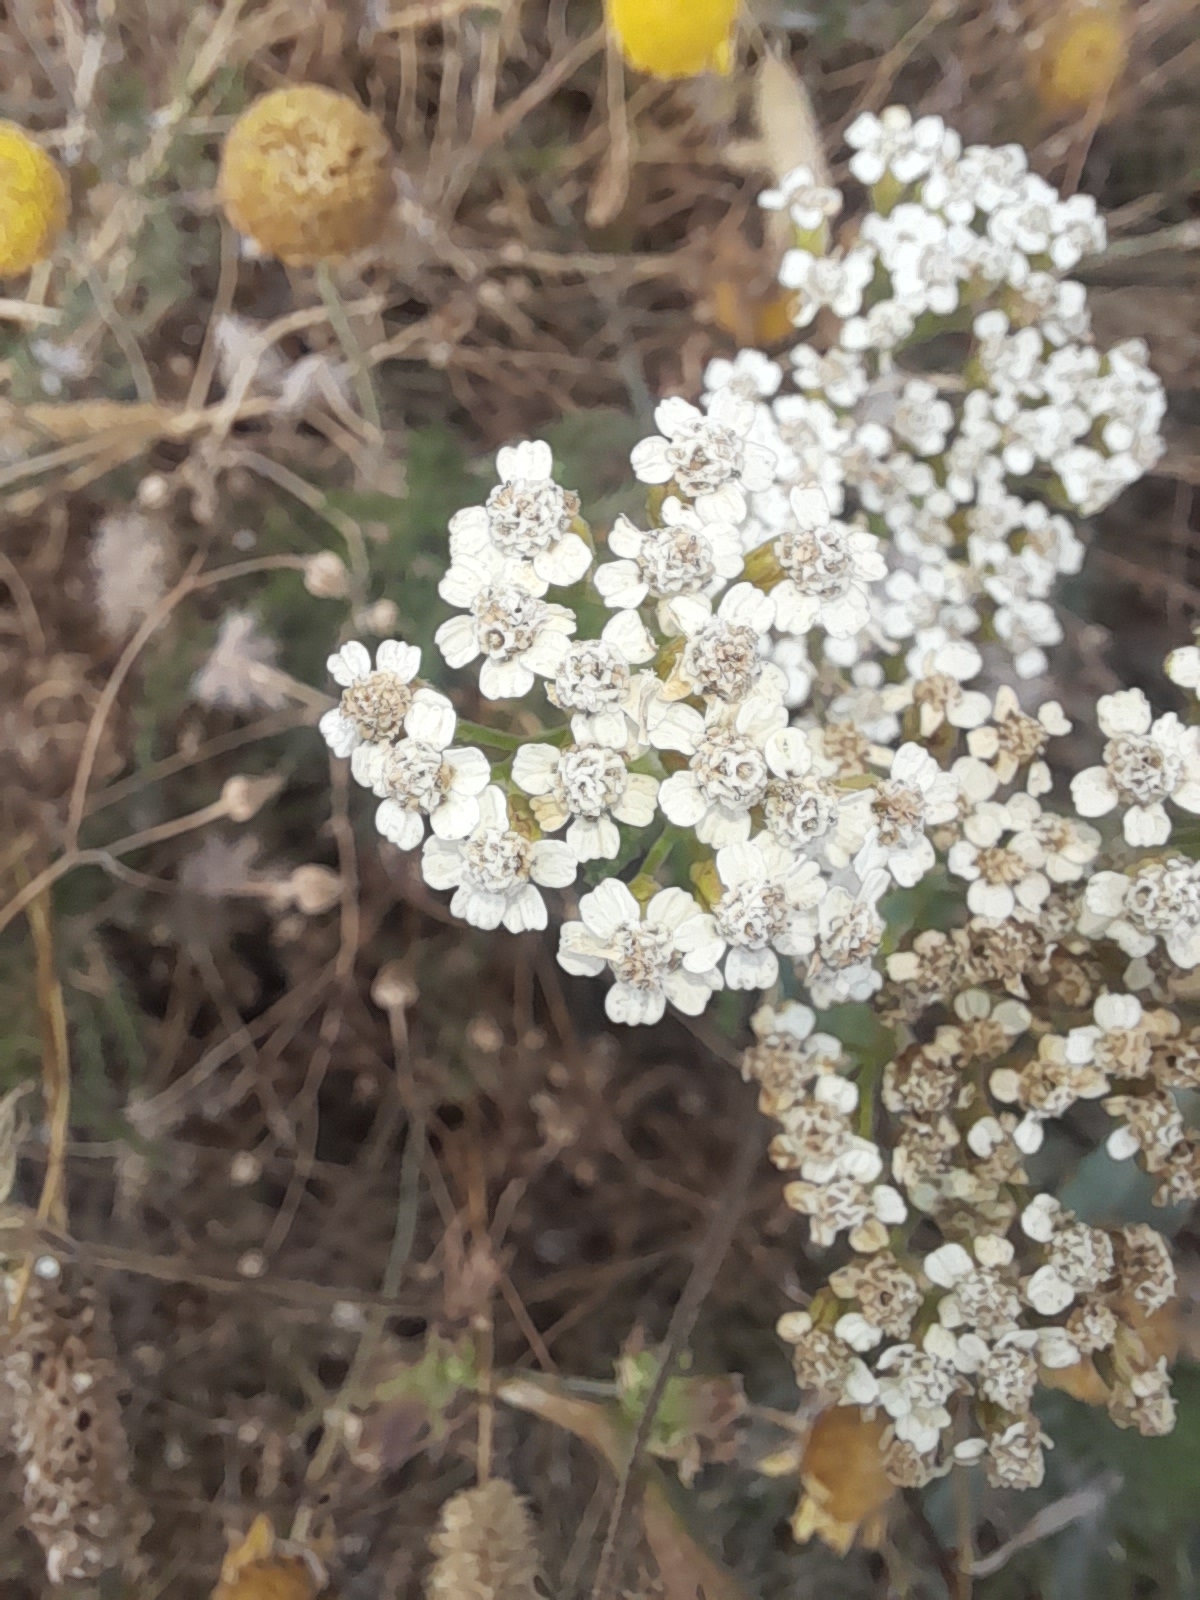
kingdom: Plantae
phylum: Tracheophyta
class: Magnoliopsida
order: Asterales
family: Asteraceae
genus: Achillea
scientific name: Achillea millefolium
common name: Yarrow
